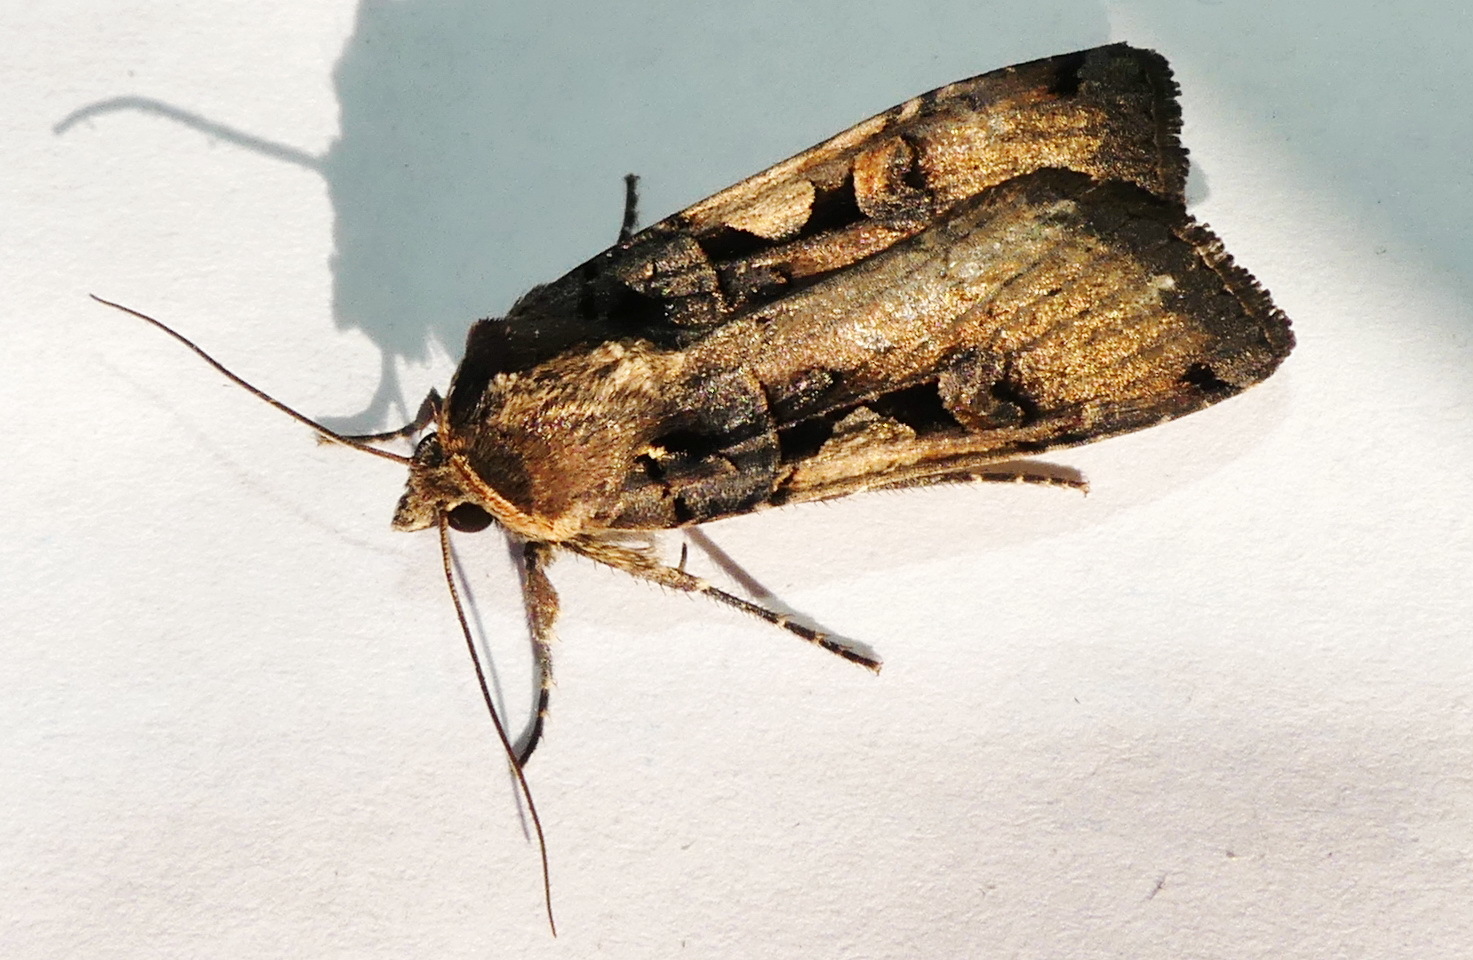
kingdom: Animalia
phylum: Arthropoda
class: Insecta
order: Lepidoptera
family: Noctuidae
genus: Xestia
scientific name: Xestia
